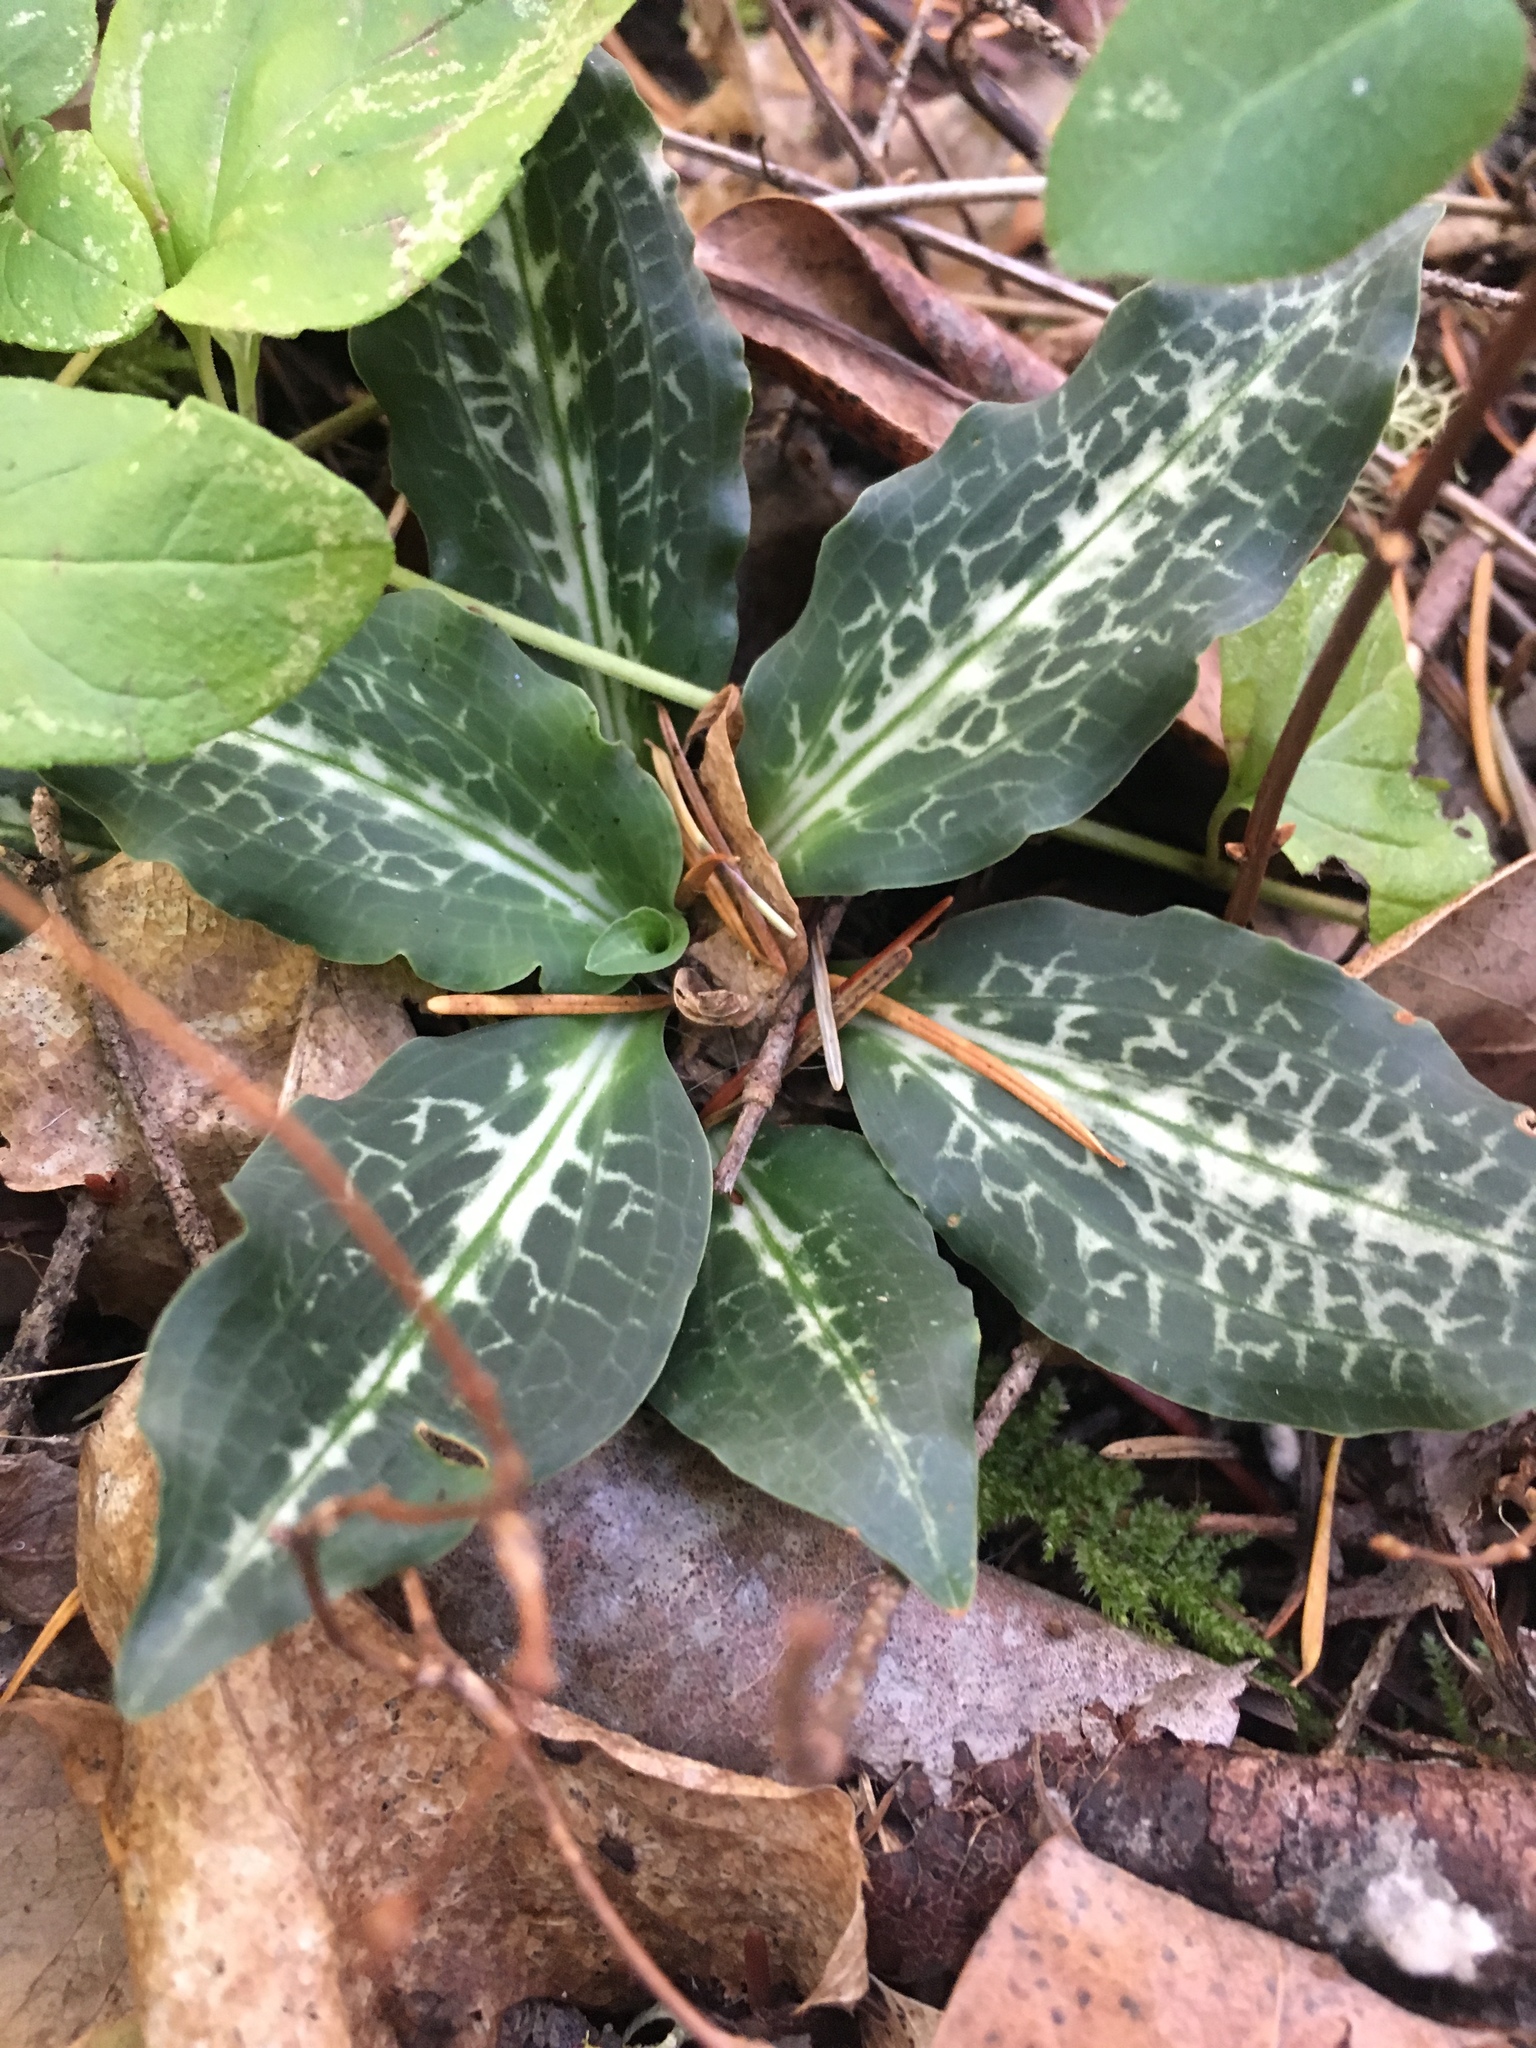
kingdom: Plantae
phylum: Tracheophyta
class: Liliopsida
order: Asparagales
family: Orchidaceae
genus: Goodyera
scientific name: Goodyera oblongifolia
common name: Giant rattlesnake-plantain
